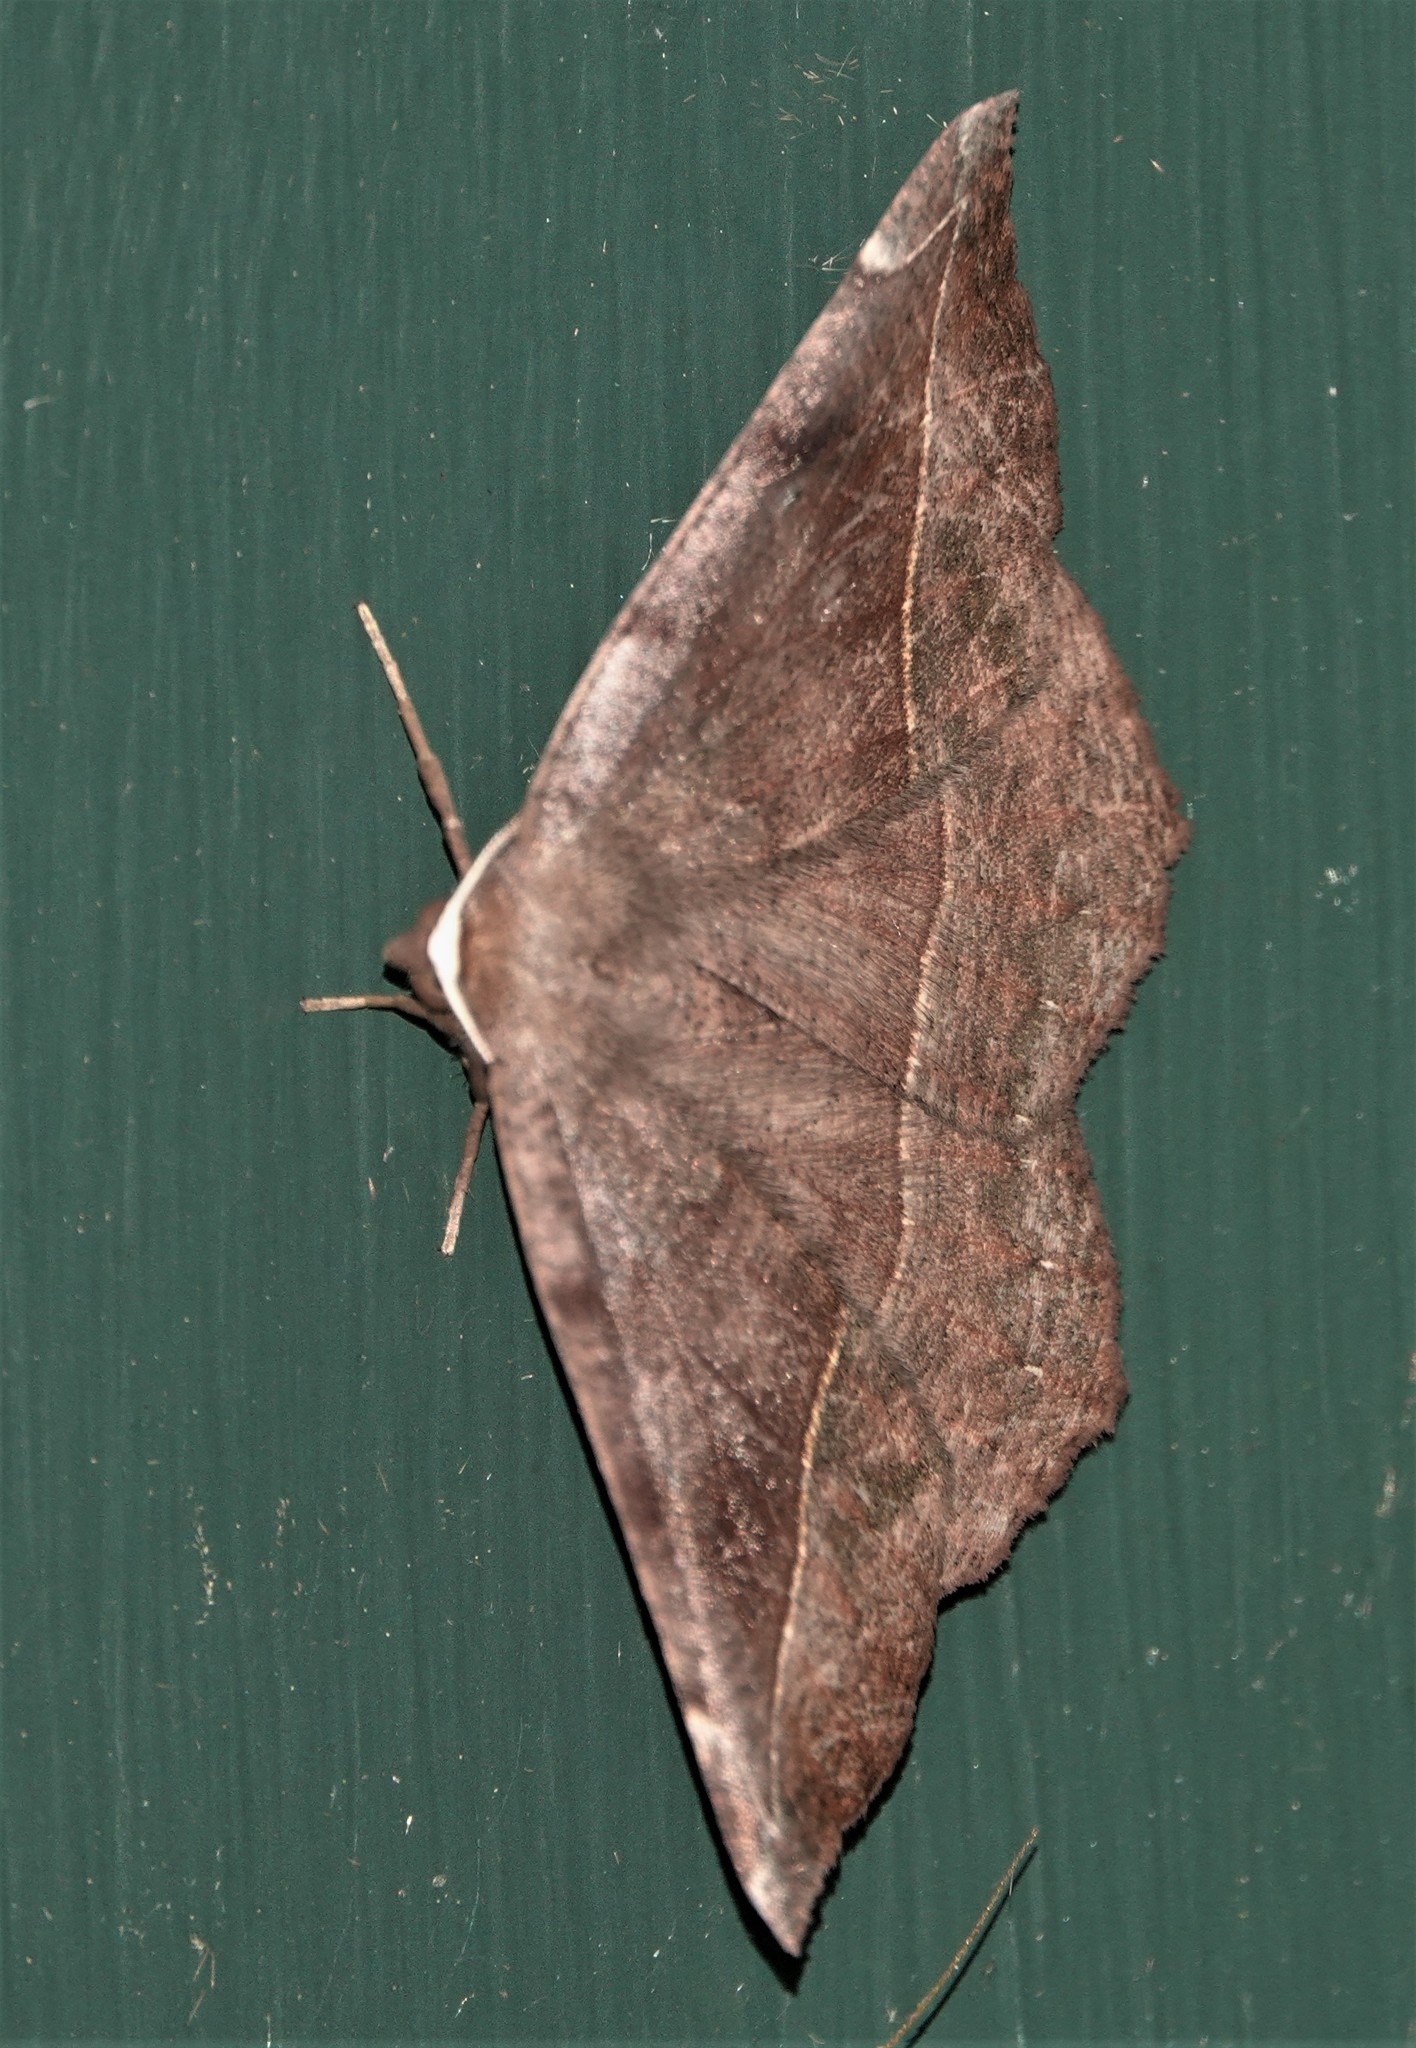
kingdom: Animalia
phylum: Arthropoda
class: Insecta
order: Lepidoptera
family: Geometridae
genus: Eutrapela
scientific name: Eutrapela clemataria
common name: Curved-toothed geometer
